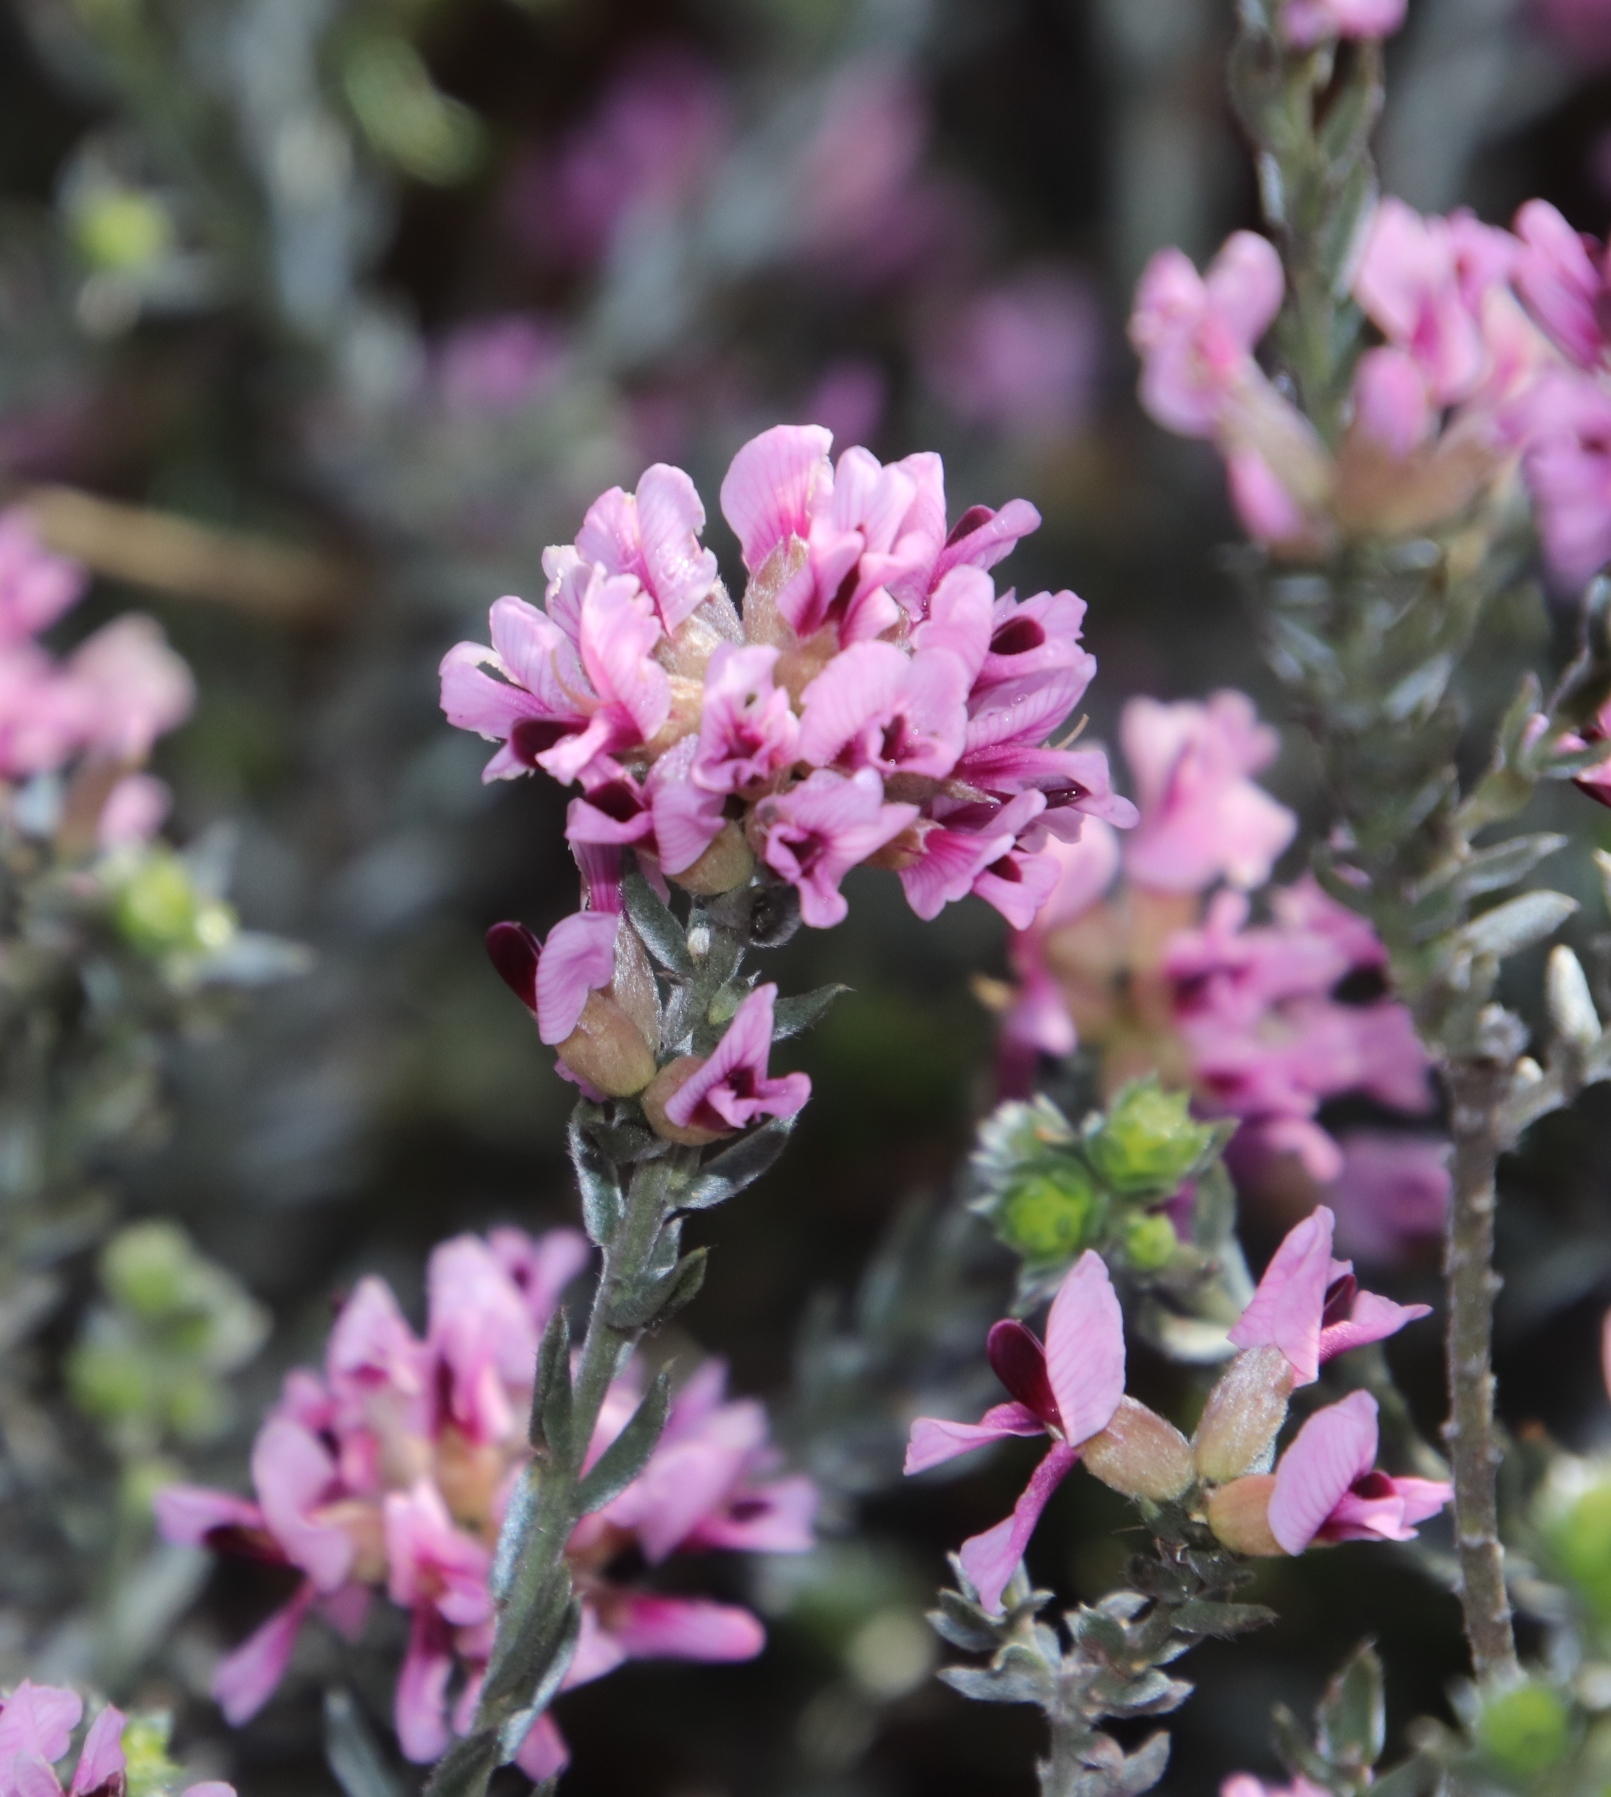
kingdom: Plantae
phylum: Tracheophyta
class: Magnoliopsida
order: Fabales
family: Fabaceae
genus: Amphithalea
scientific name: Amphithalea ericifolia
